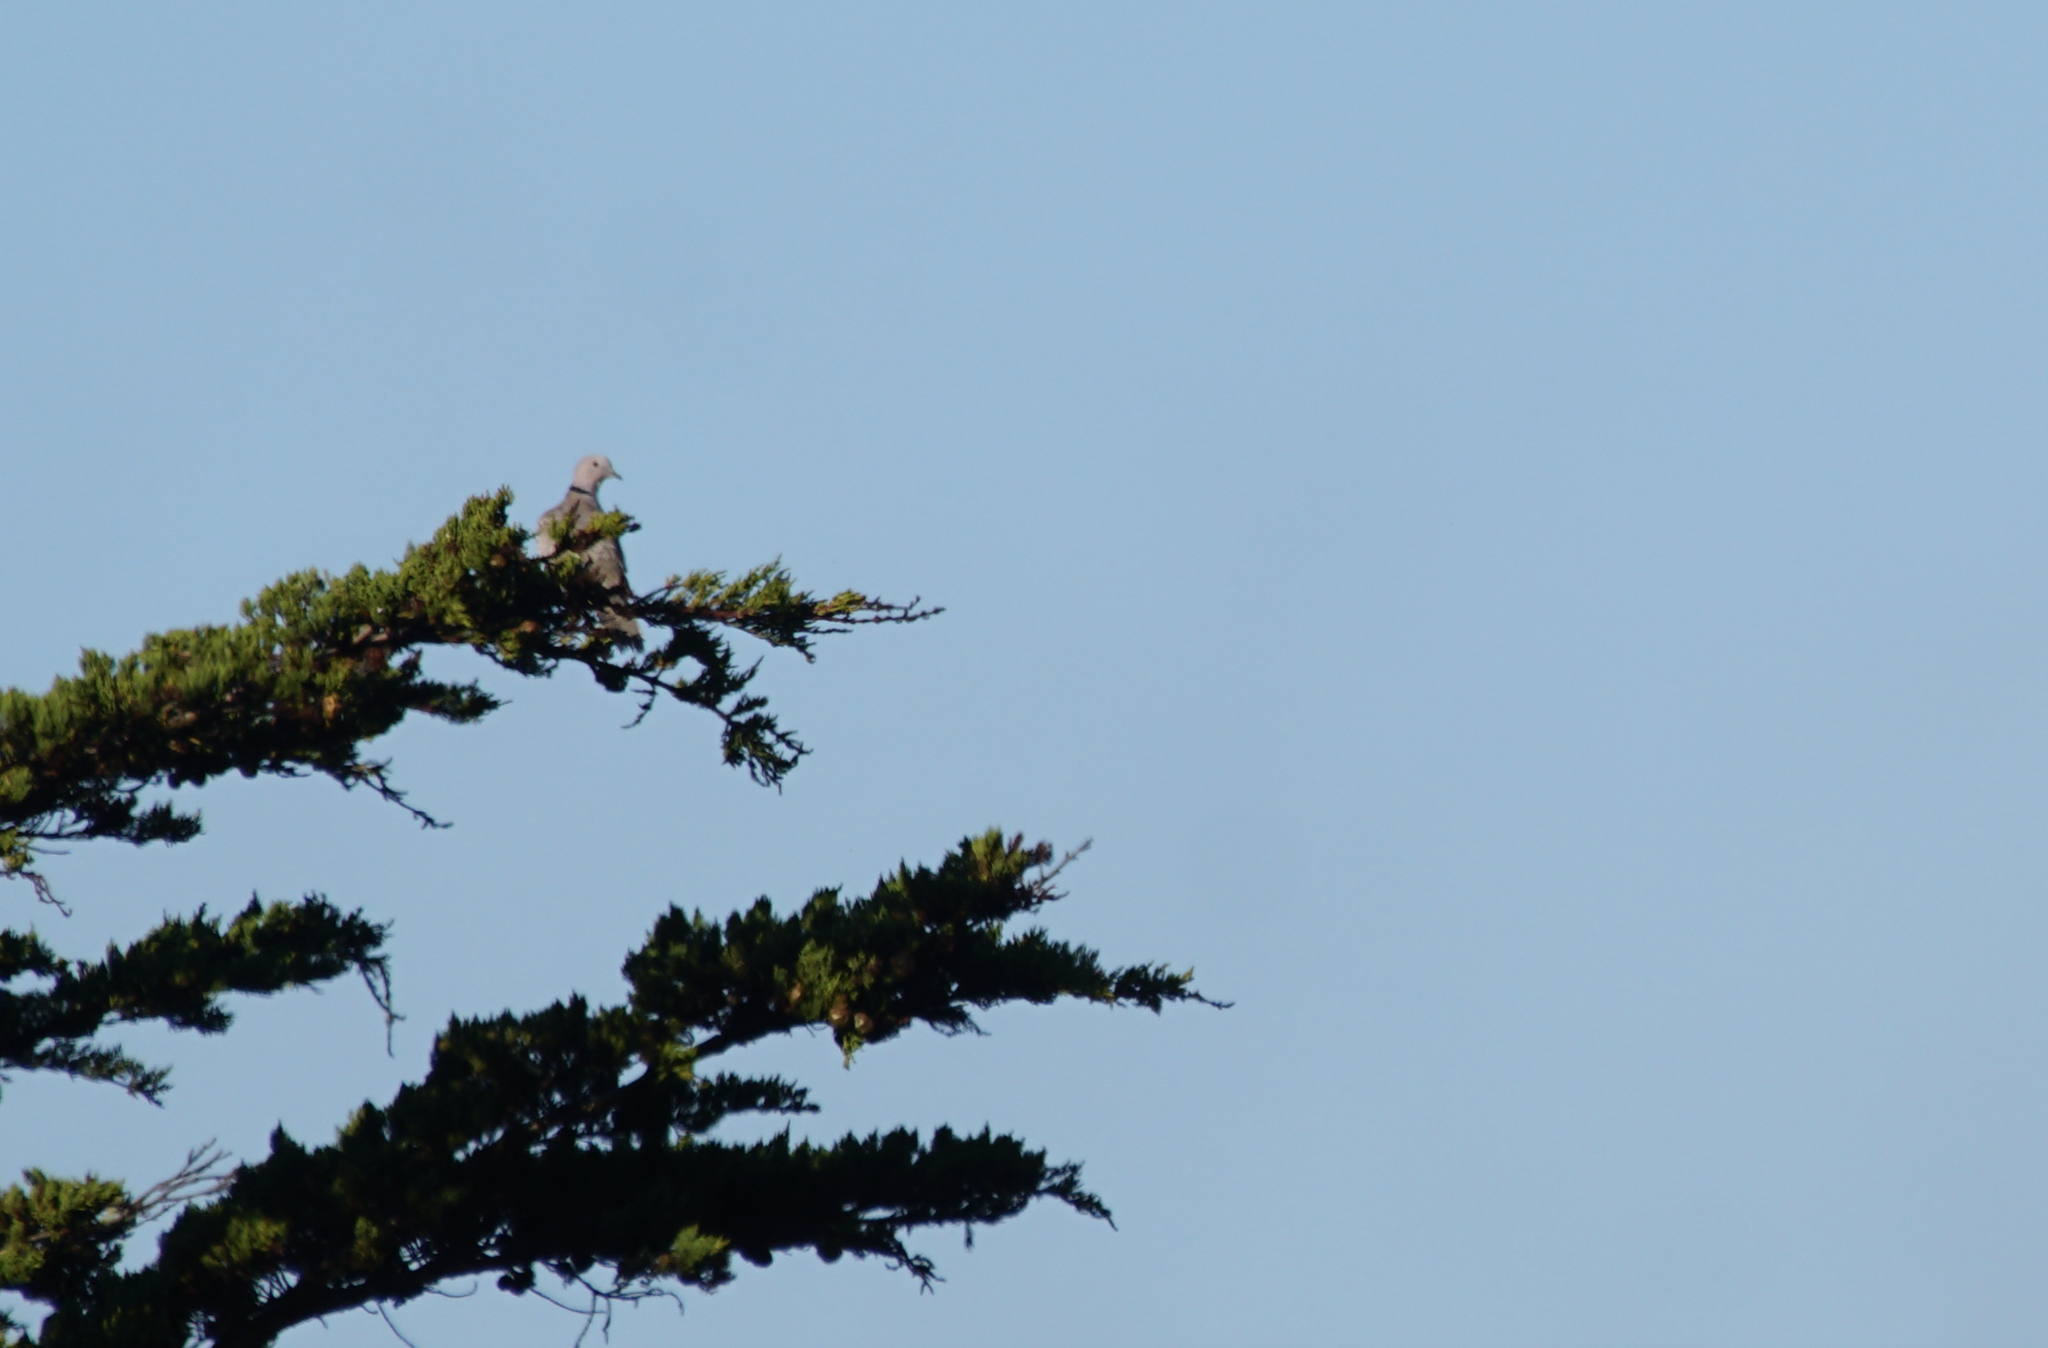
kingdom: Animalia
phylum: Chordata
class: Aves
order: Columbiformes
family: Columbidae
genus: Streptopelia
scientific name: Streptopelia decaocto
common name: Eurasian collared dove
